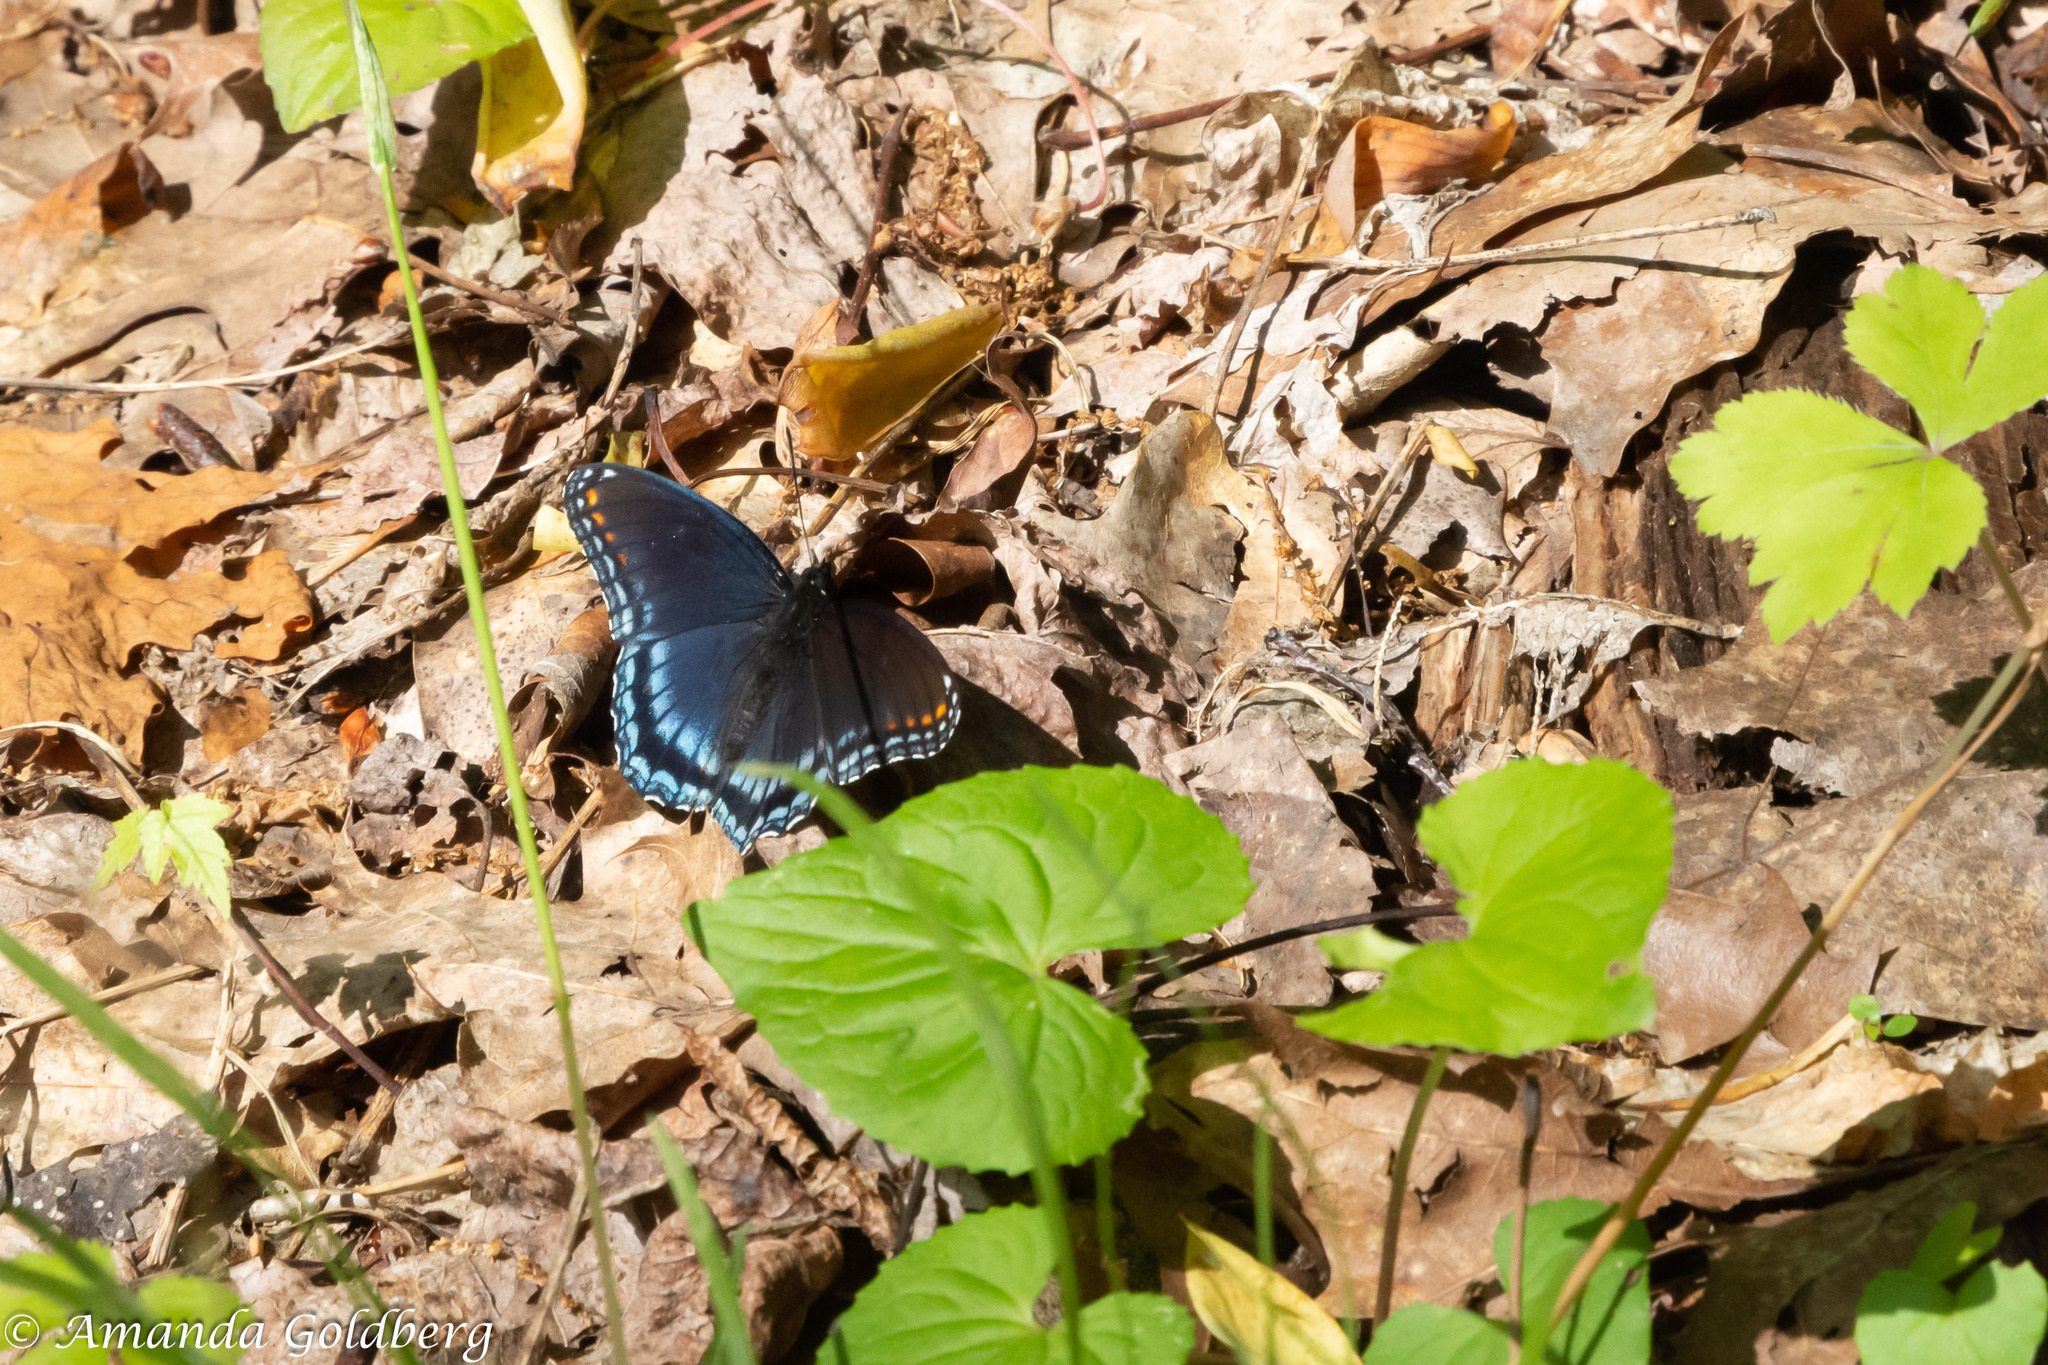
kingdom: Animalia
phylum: Arthropoda
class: Insecta
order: Lepidoptera
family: Nymphalidae
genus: Limenitis
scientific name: Limenitis astyanax
